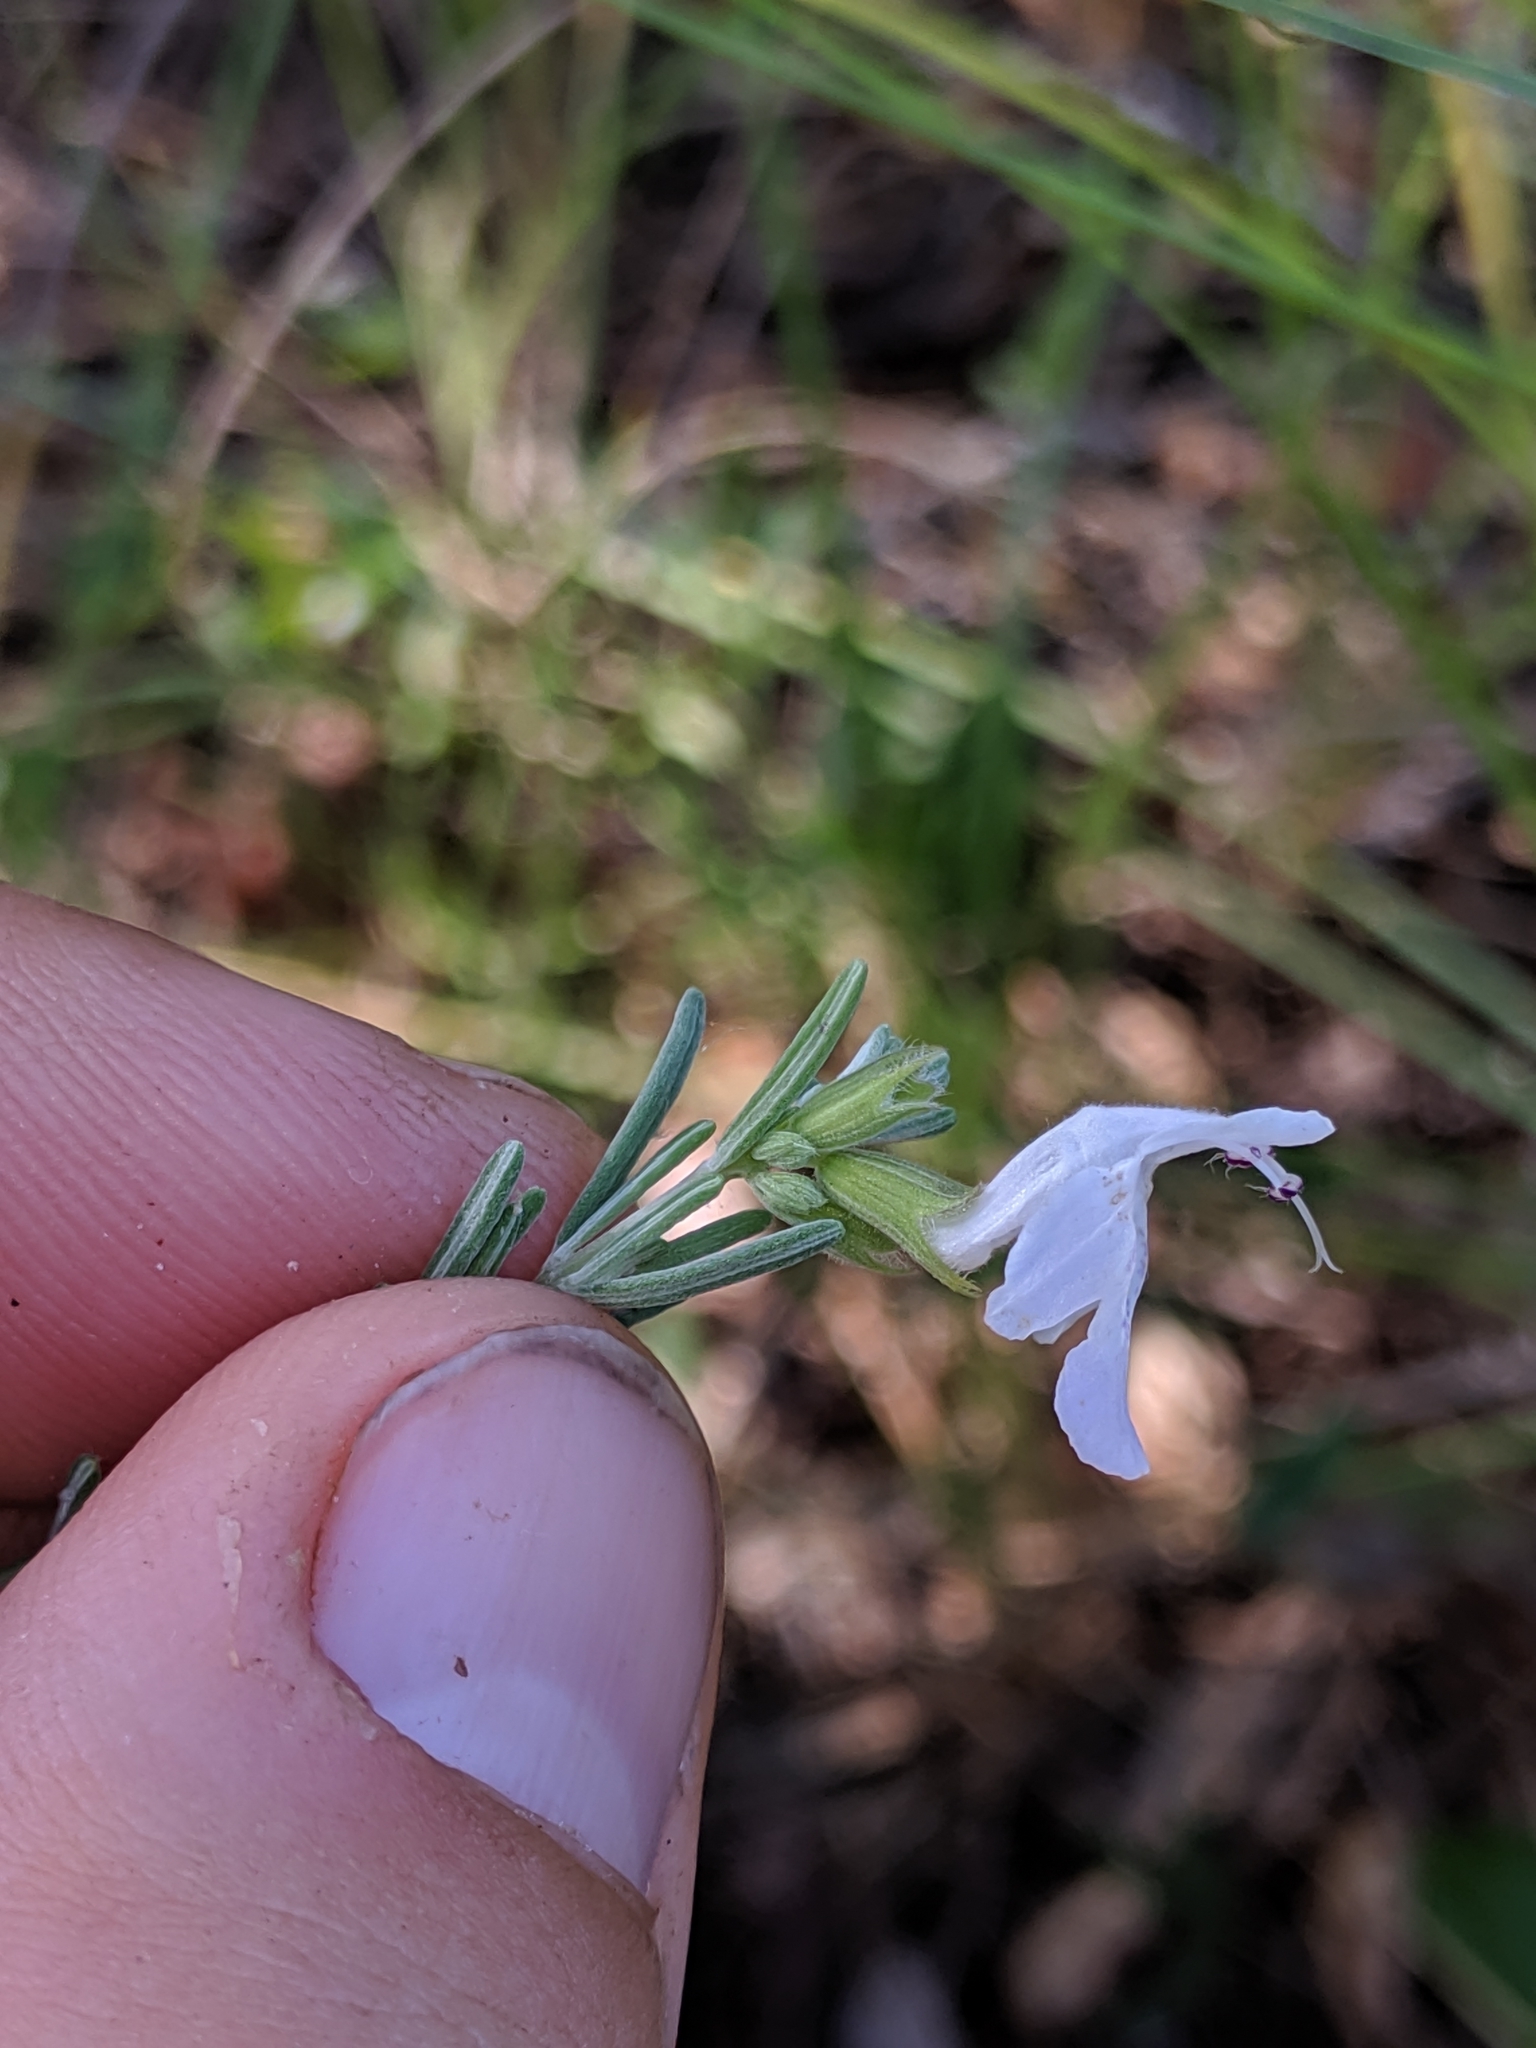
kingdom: Plantae
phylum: Tracheophyta
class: Magnoliopsida
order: Lamiales
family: Lamiaceae
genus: Conradina
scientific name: Conradina canescens
